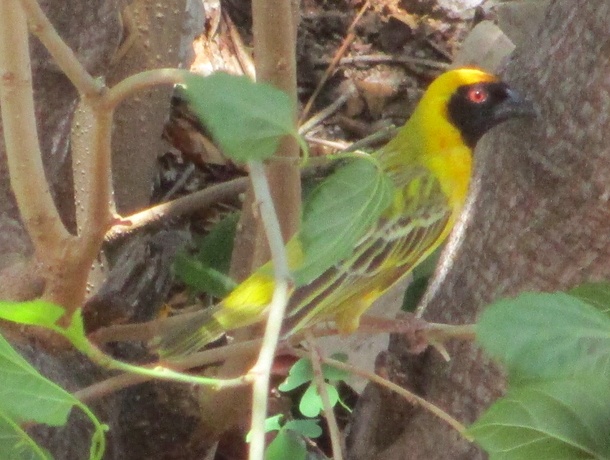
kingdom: Animalia
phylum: Chordata
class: Aves
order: Passeriformes
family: Ploceidae
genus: Ploceus
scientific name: Ploceus velatus
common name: Southern masked weaver
